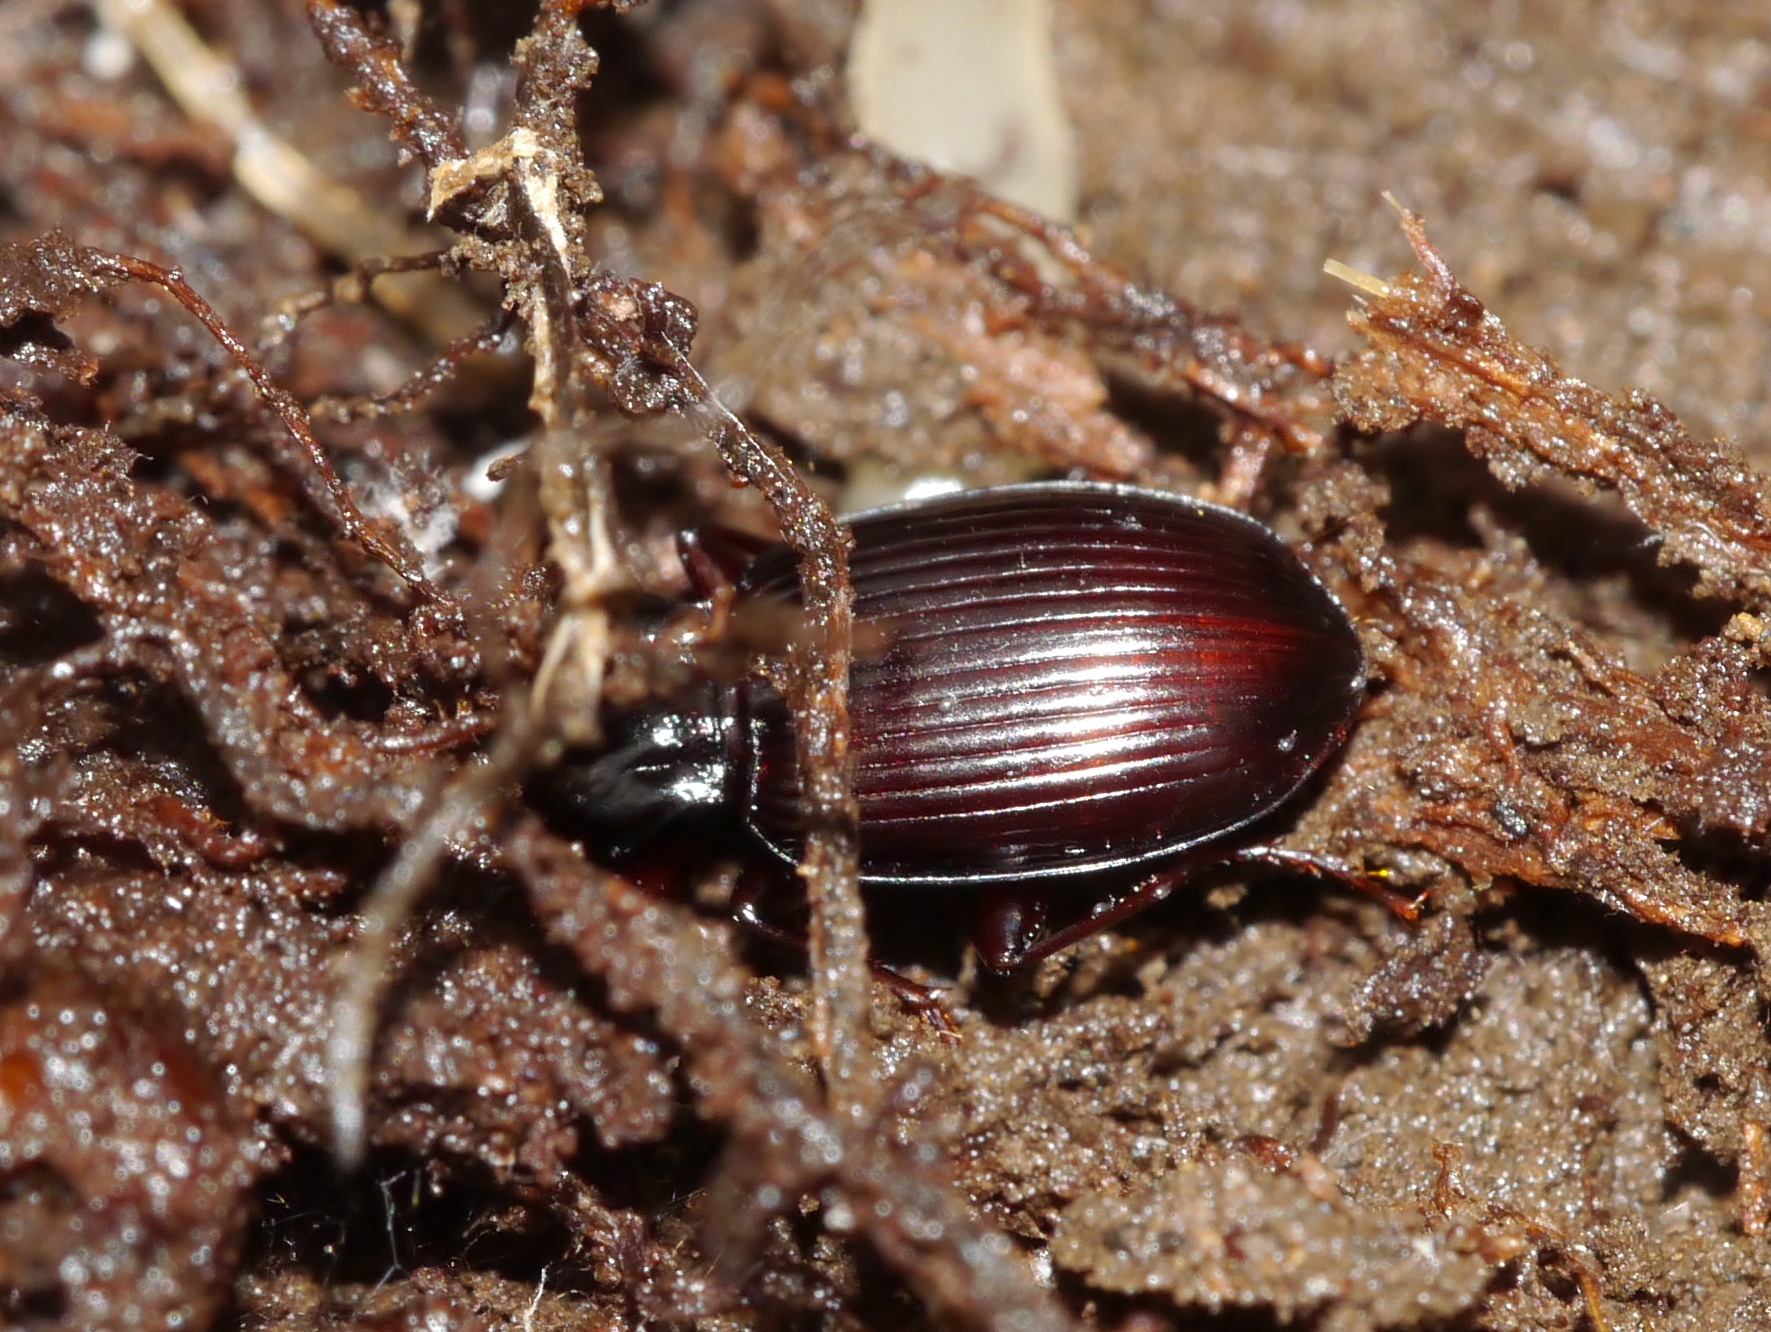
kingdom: Animalia
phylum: Arthropoda
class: Insecta
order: Coleoptera
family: Carabidae
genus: Gastrellarius
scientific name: Gastrellarius honestus
